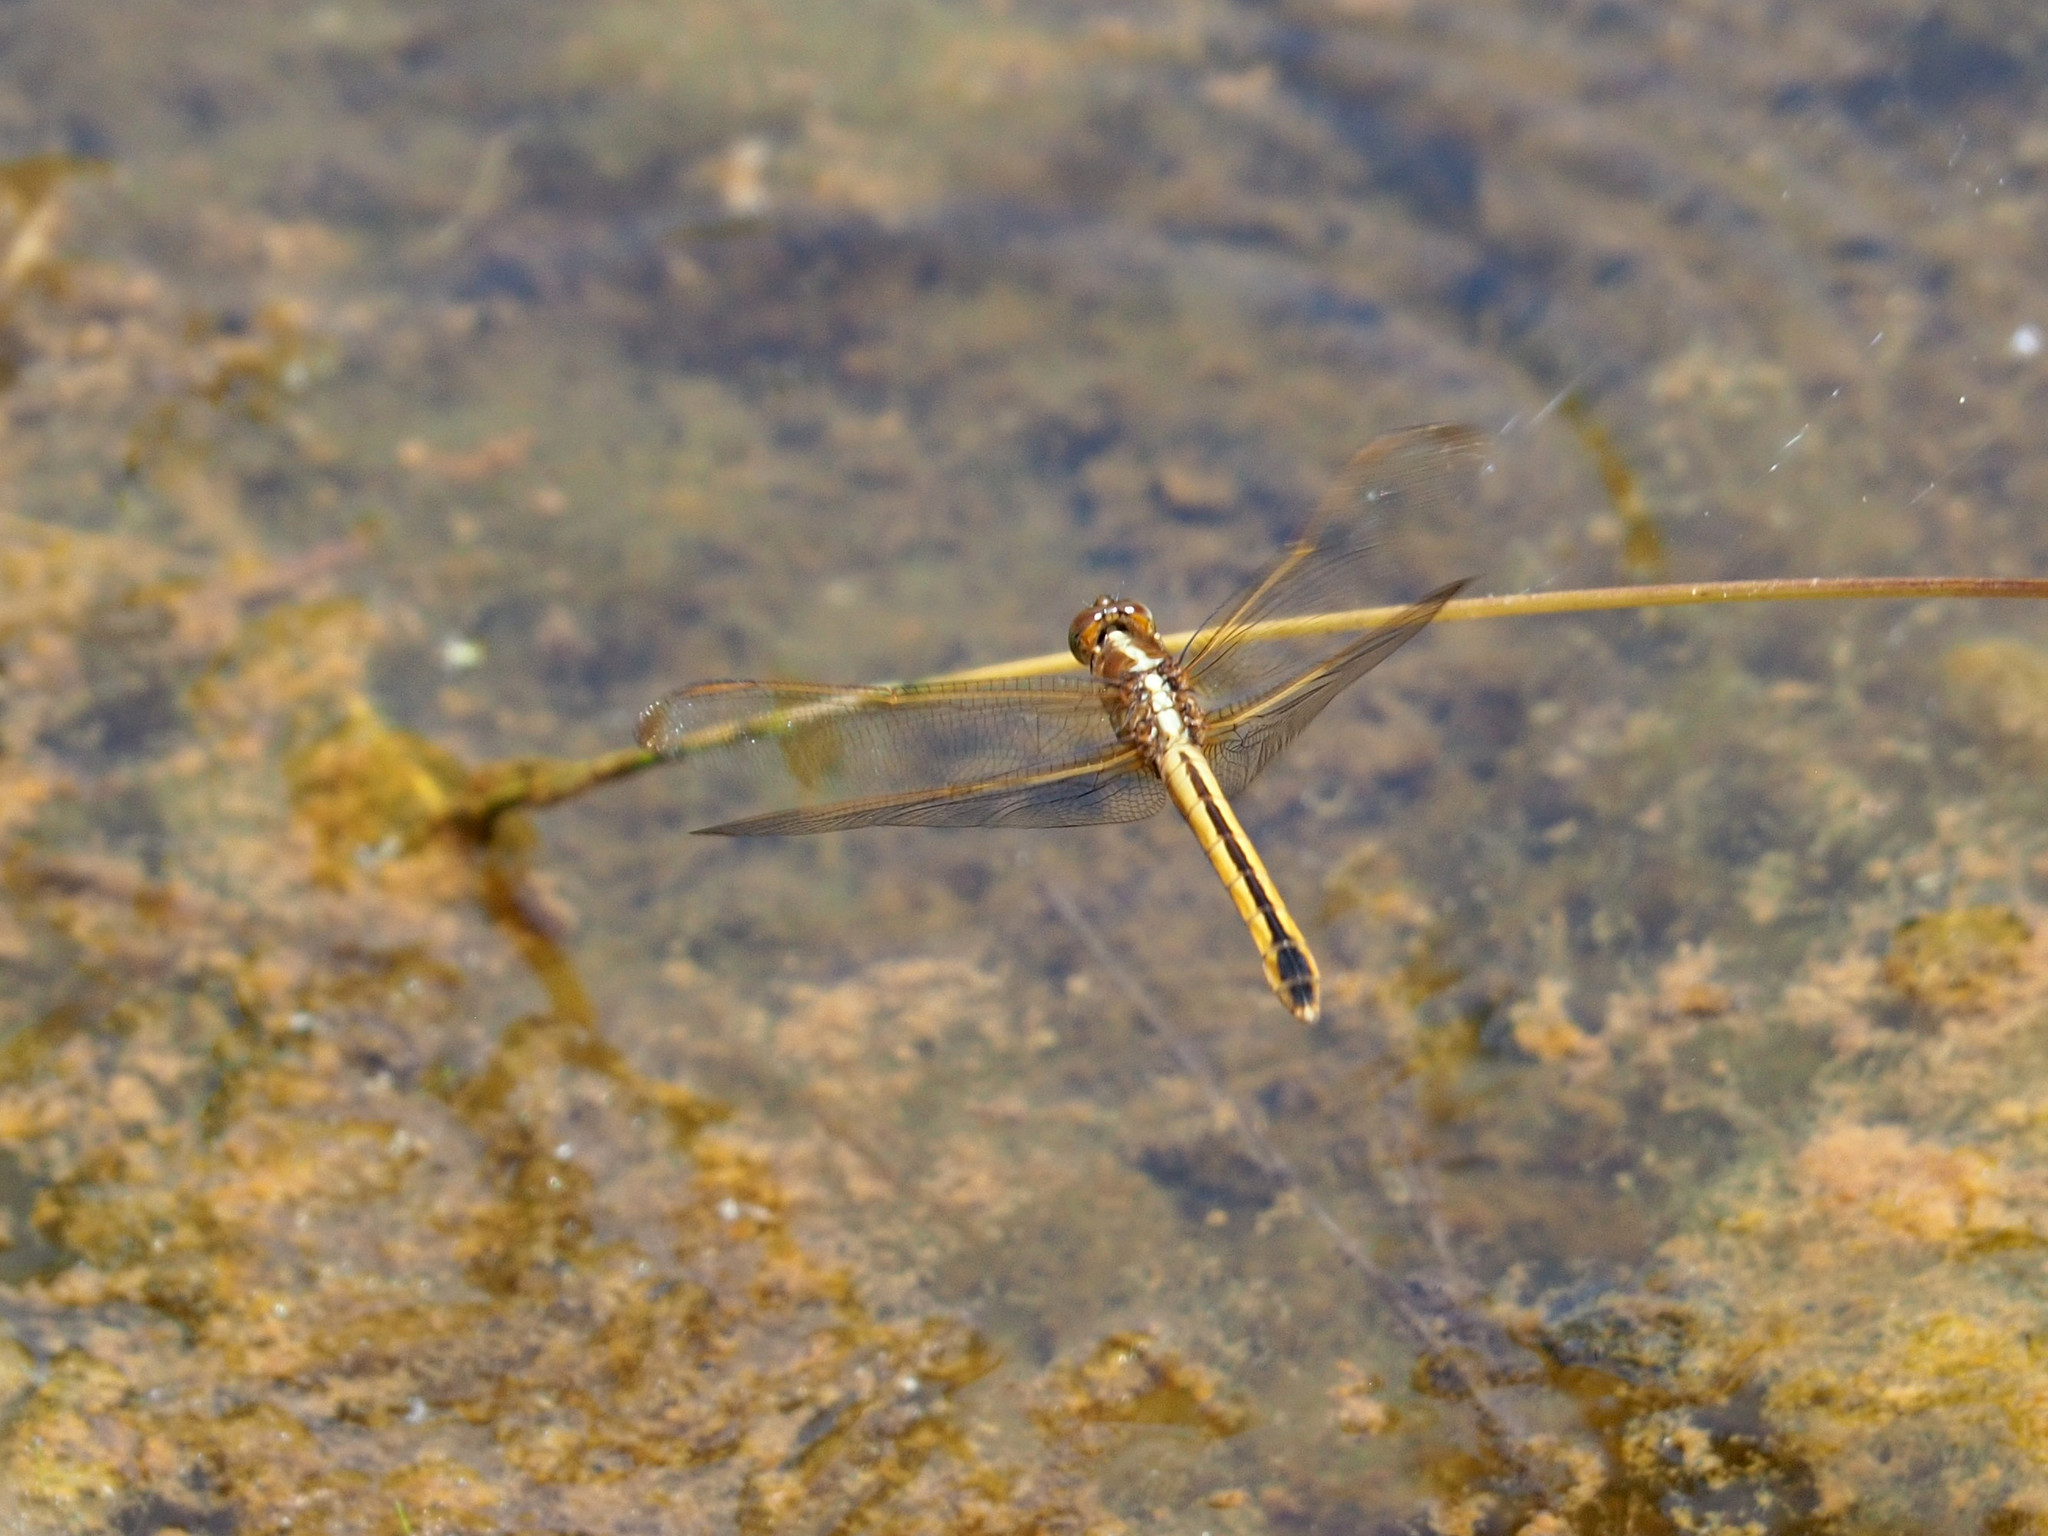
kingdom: Animalia
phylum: Arthropoda
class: Insecta
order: Odonata
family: Libellulidae
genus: Libellula
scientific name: Libellula needhami
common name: Needham's skimmer
